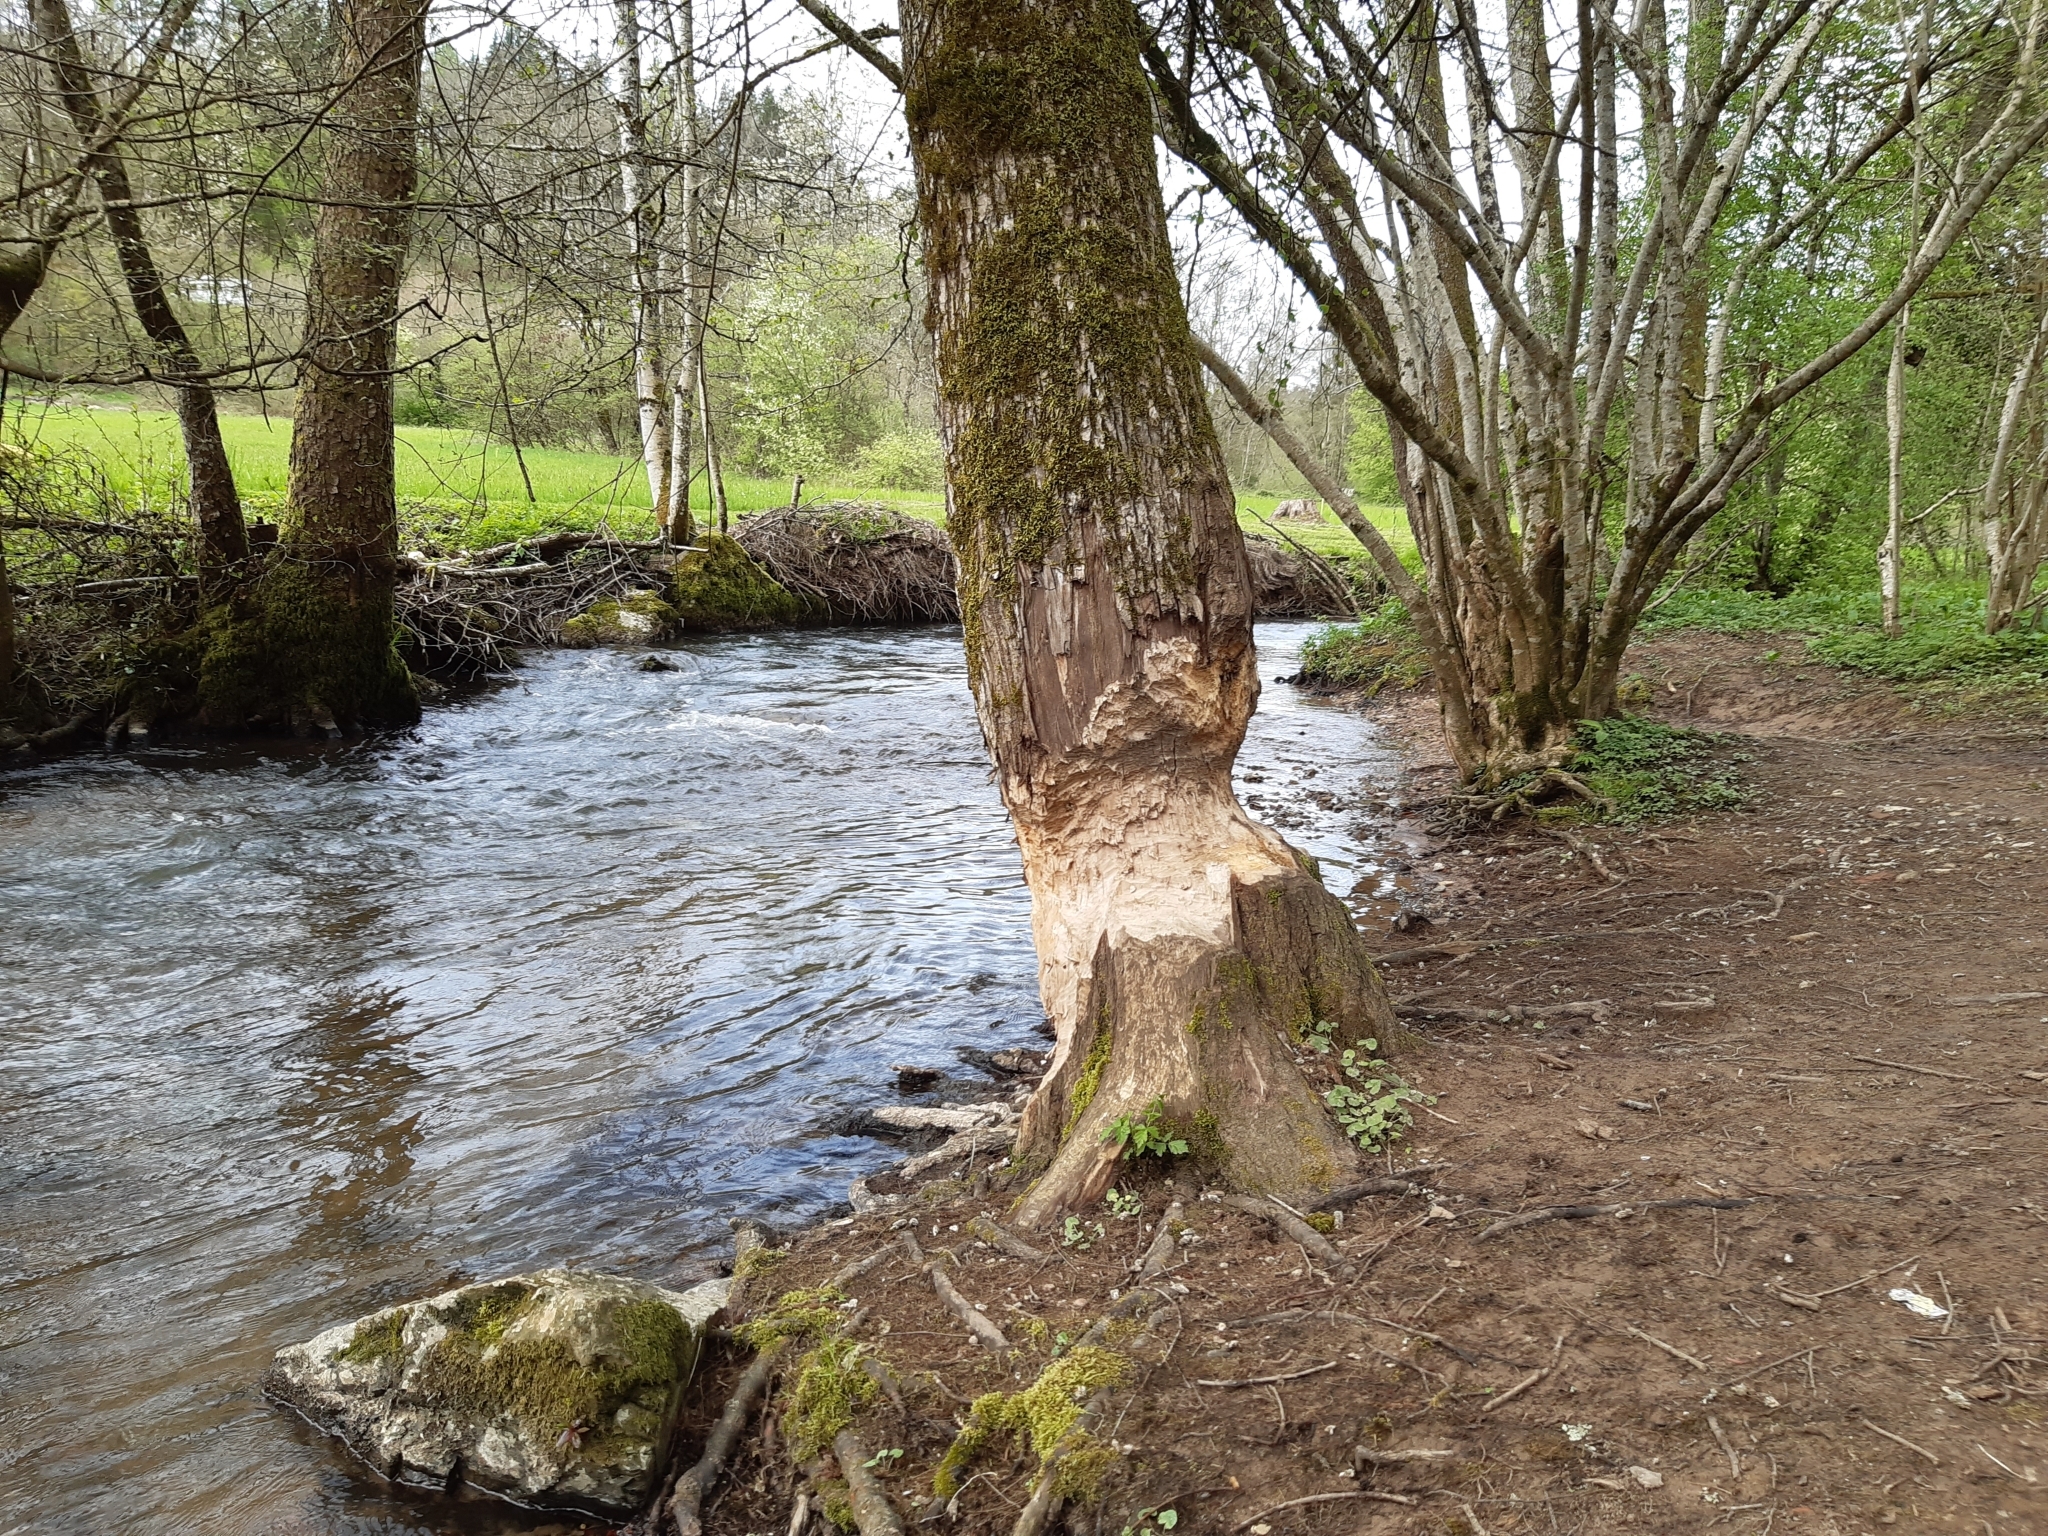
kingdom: Animalia
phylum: Chordata
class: Mammalia
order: Rodentia
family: Castoridae
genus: Castor
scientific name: Castor fiber
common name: Eurasian beaver
